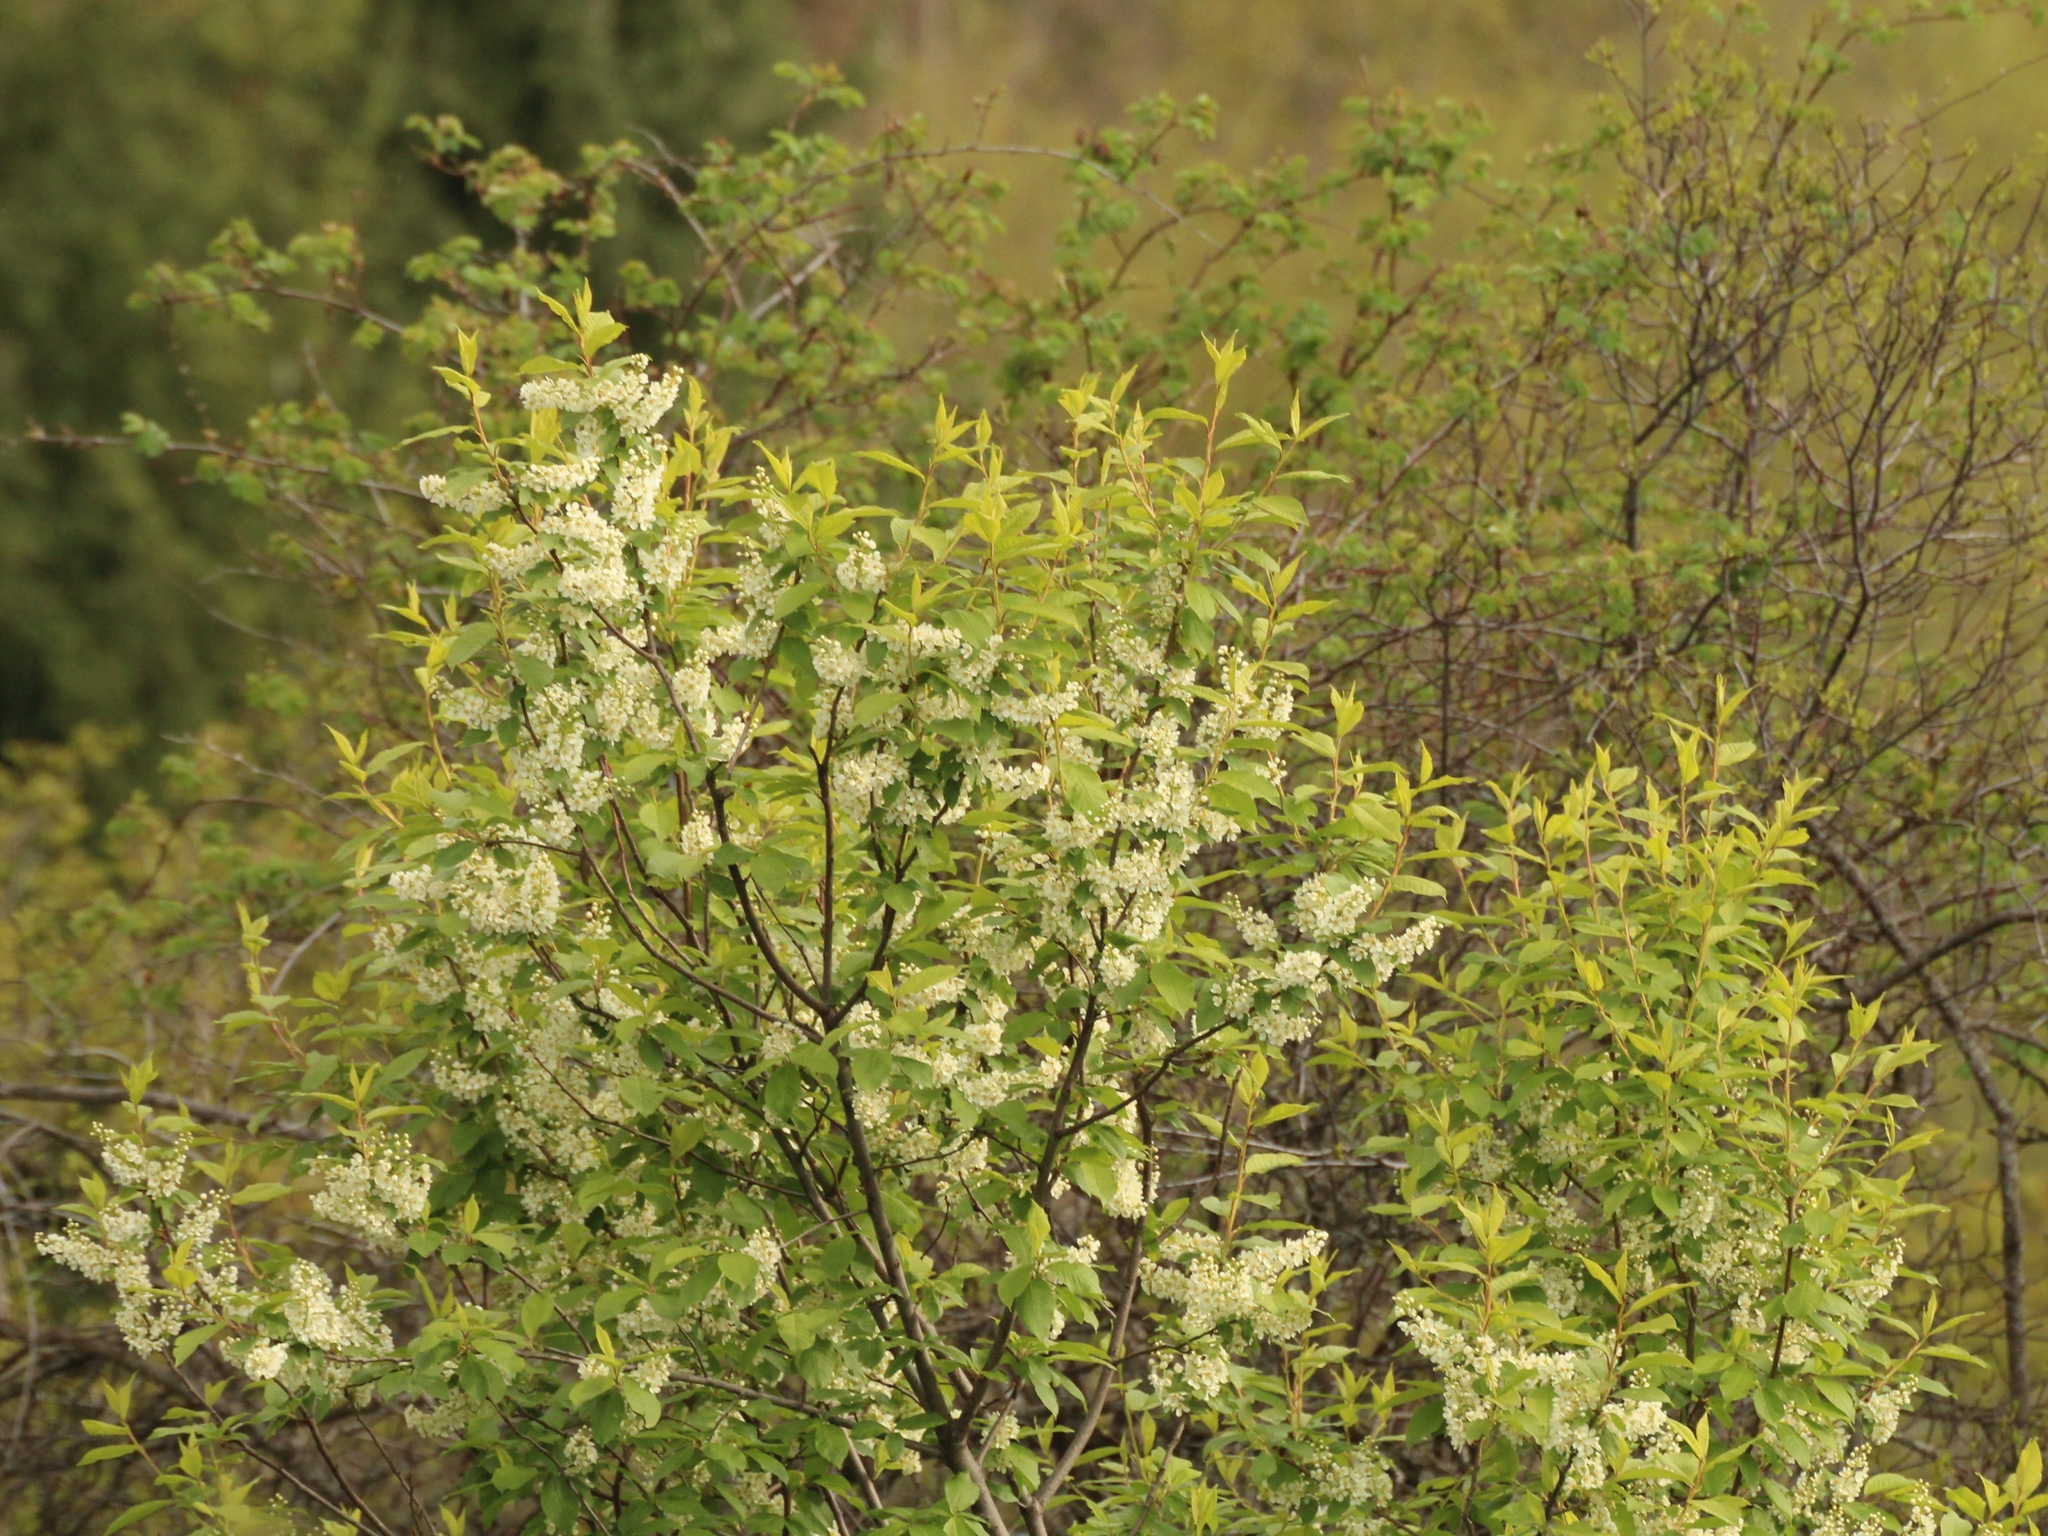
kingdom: Plantae
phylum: Tracheophyta
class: Magnoliopsida
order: Rosales
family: Rosaceae
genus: Prunus
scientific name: Prunus padus
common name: Bird cherry
